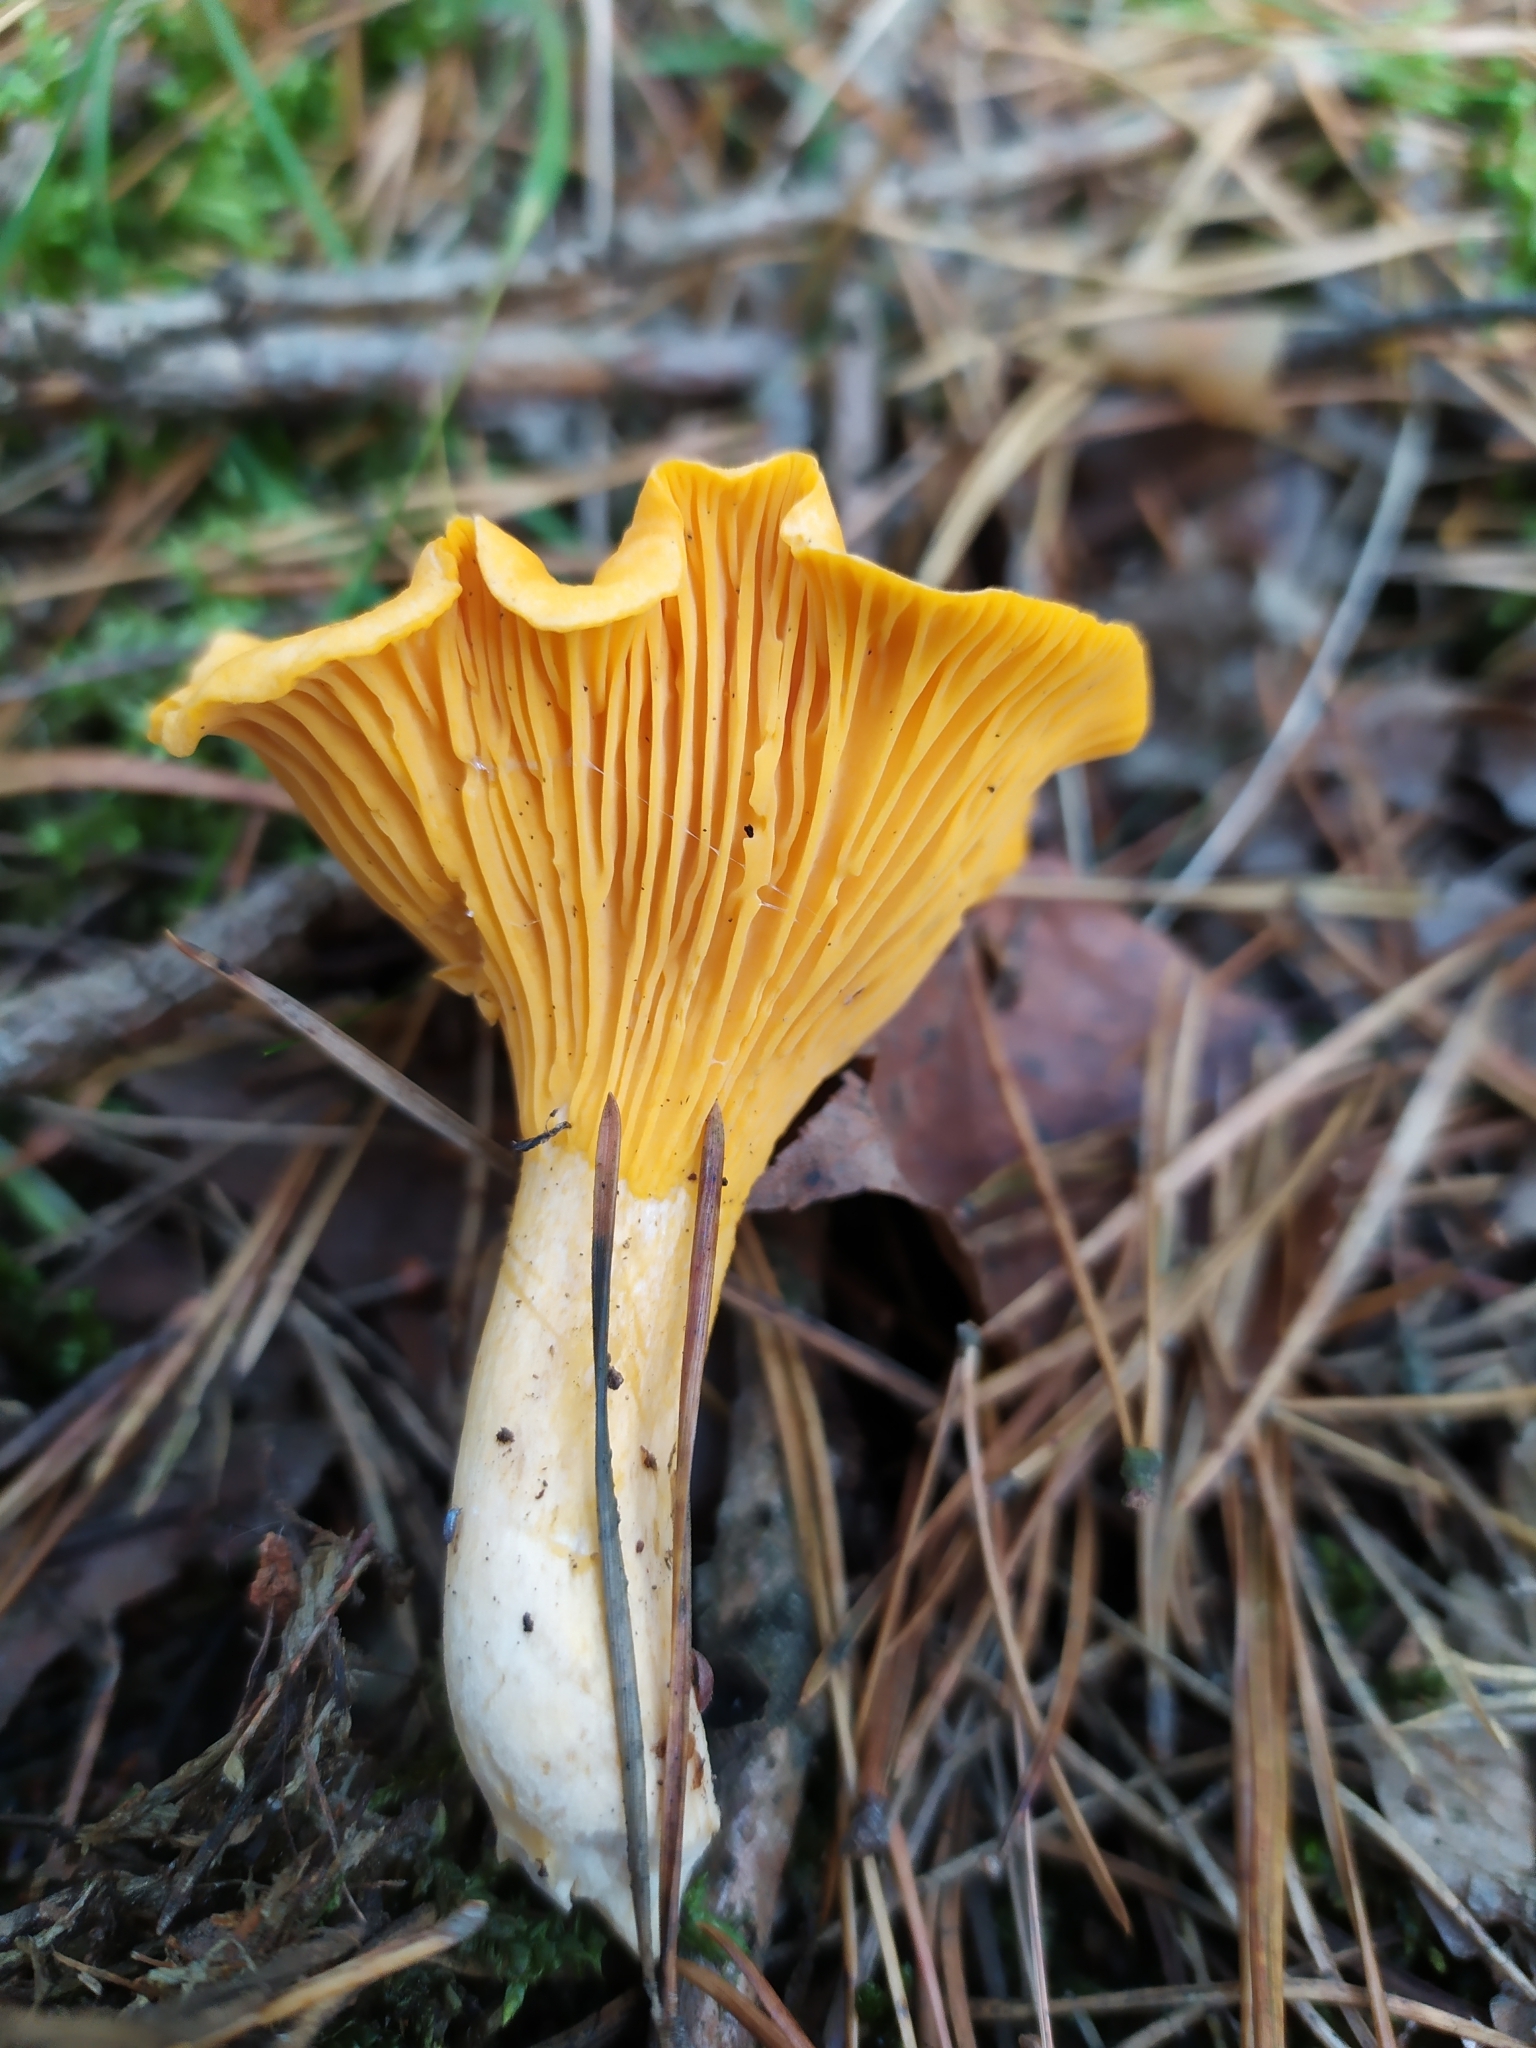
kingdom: Fungi
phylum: Basidiomycota
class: Agaricomycetes
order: Cantharellales
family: Hydnaceae
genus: Cantharellus
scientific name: Cantharellus cibarius
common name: Chanterelle
